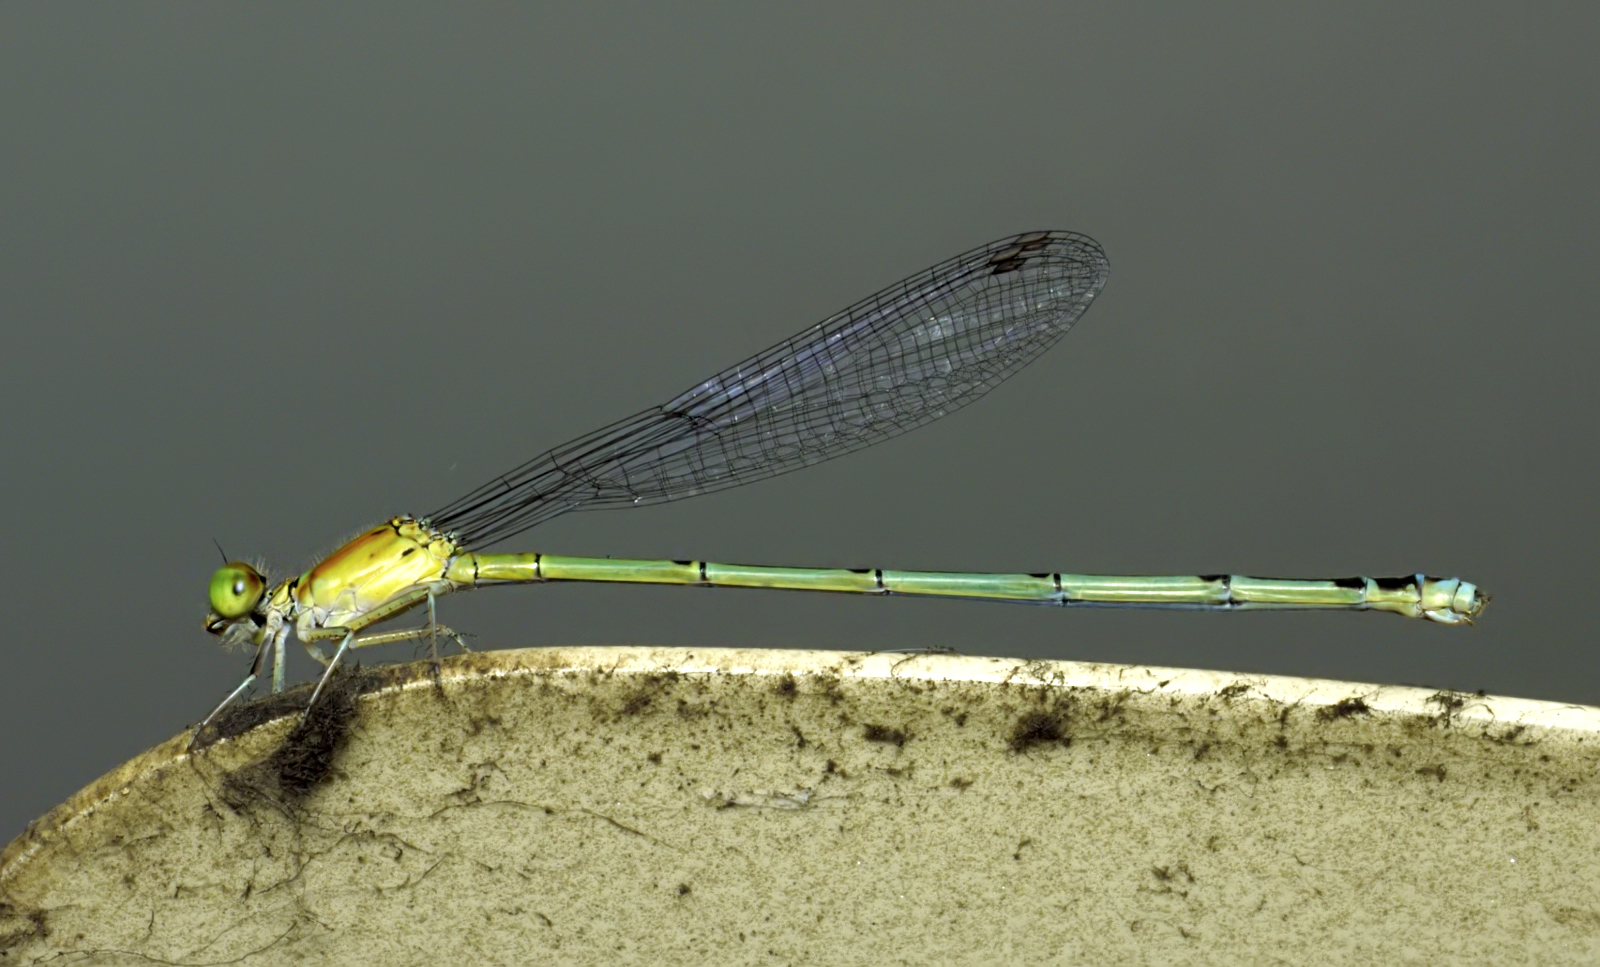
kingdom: Animalia
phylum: Arthropoda
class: Insecta
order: Odonata
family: Coenagrionidae
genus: Pseudagrion
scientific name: Pseudagrion microcephalum
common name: Blue riverdamsel
